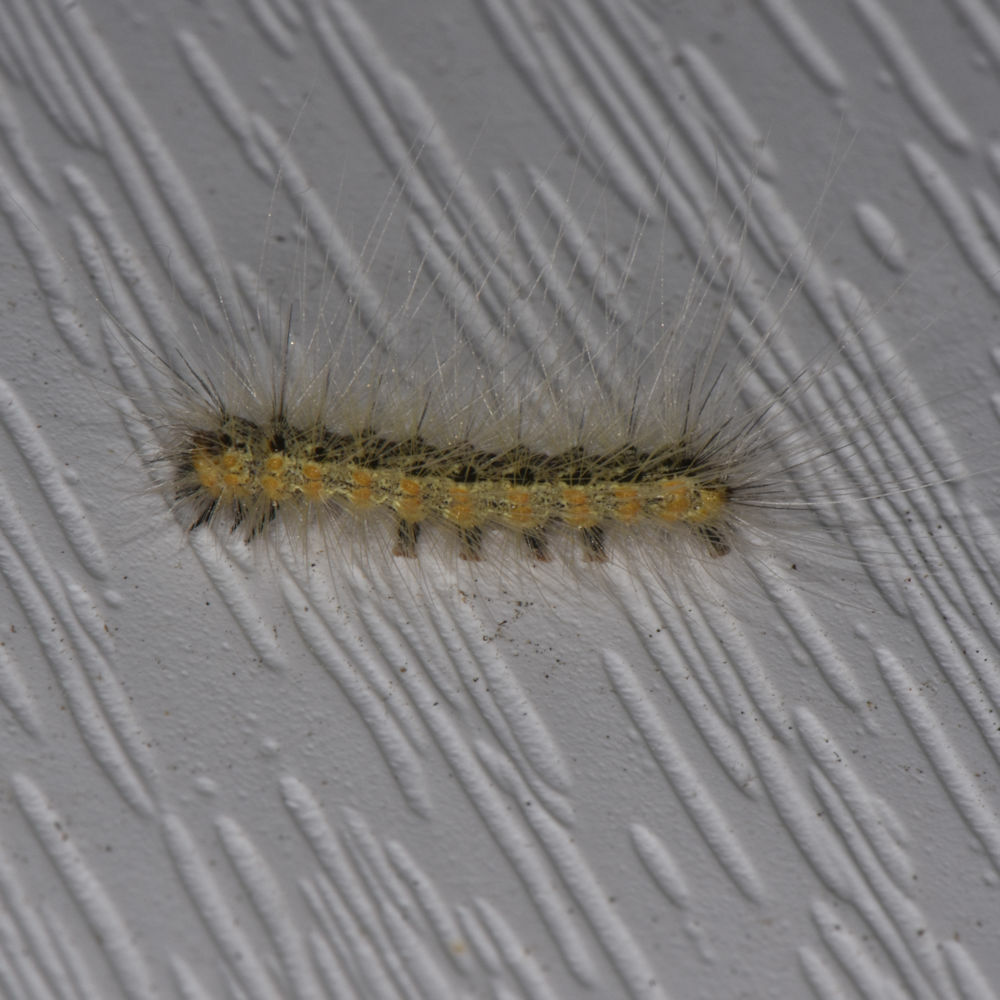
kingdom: Animalia
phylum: Arthropoda
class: Insecta
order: Lepidoptera
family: Erebidae
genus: Hyphantria
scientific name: Hyphantria cunea
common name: American white moth
